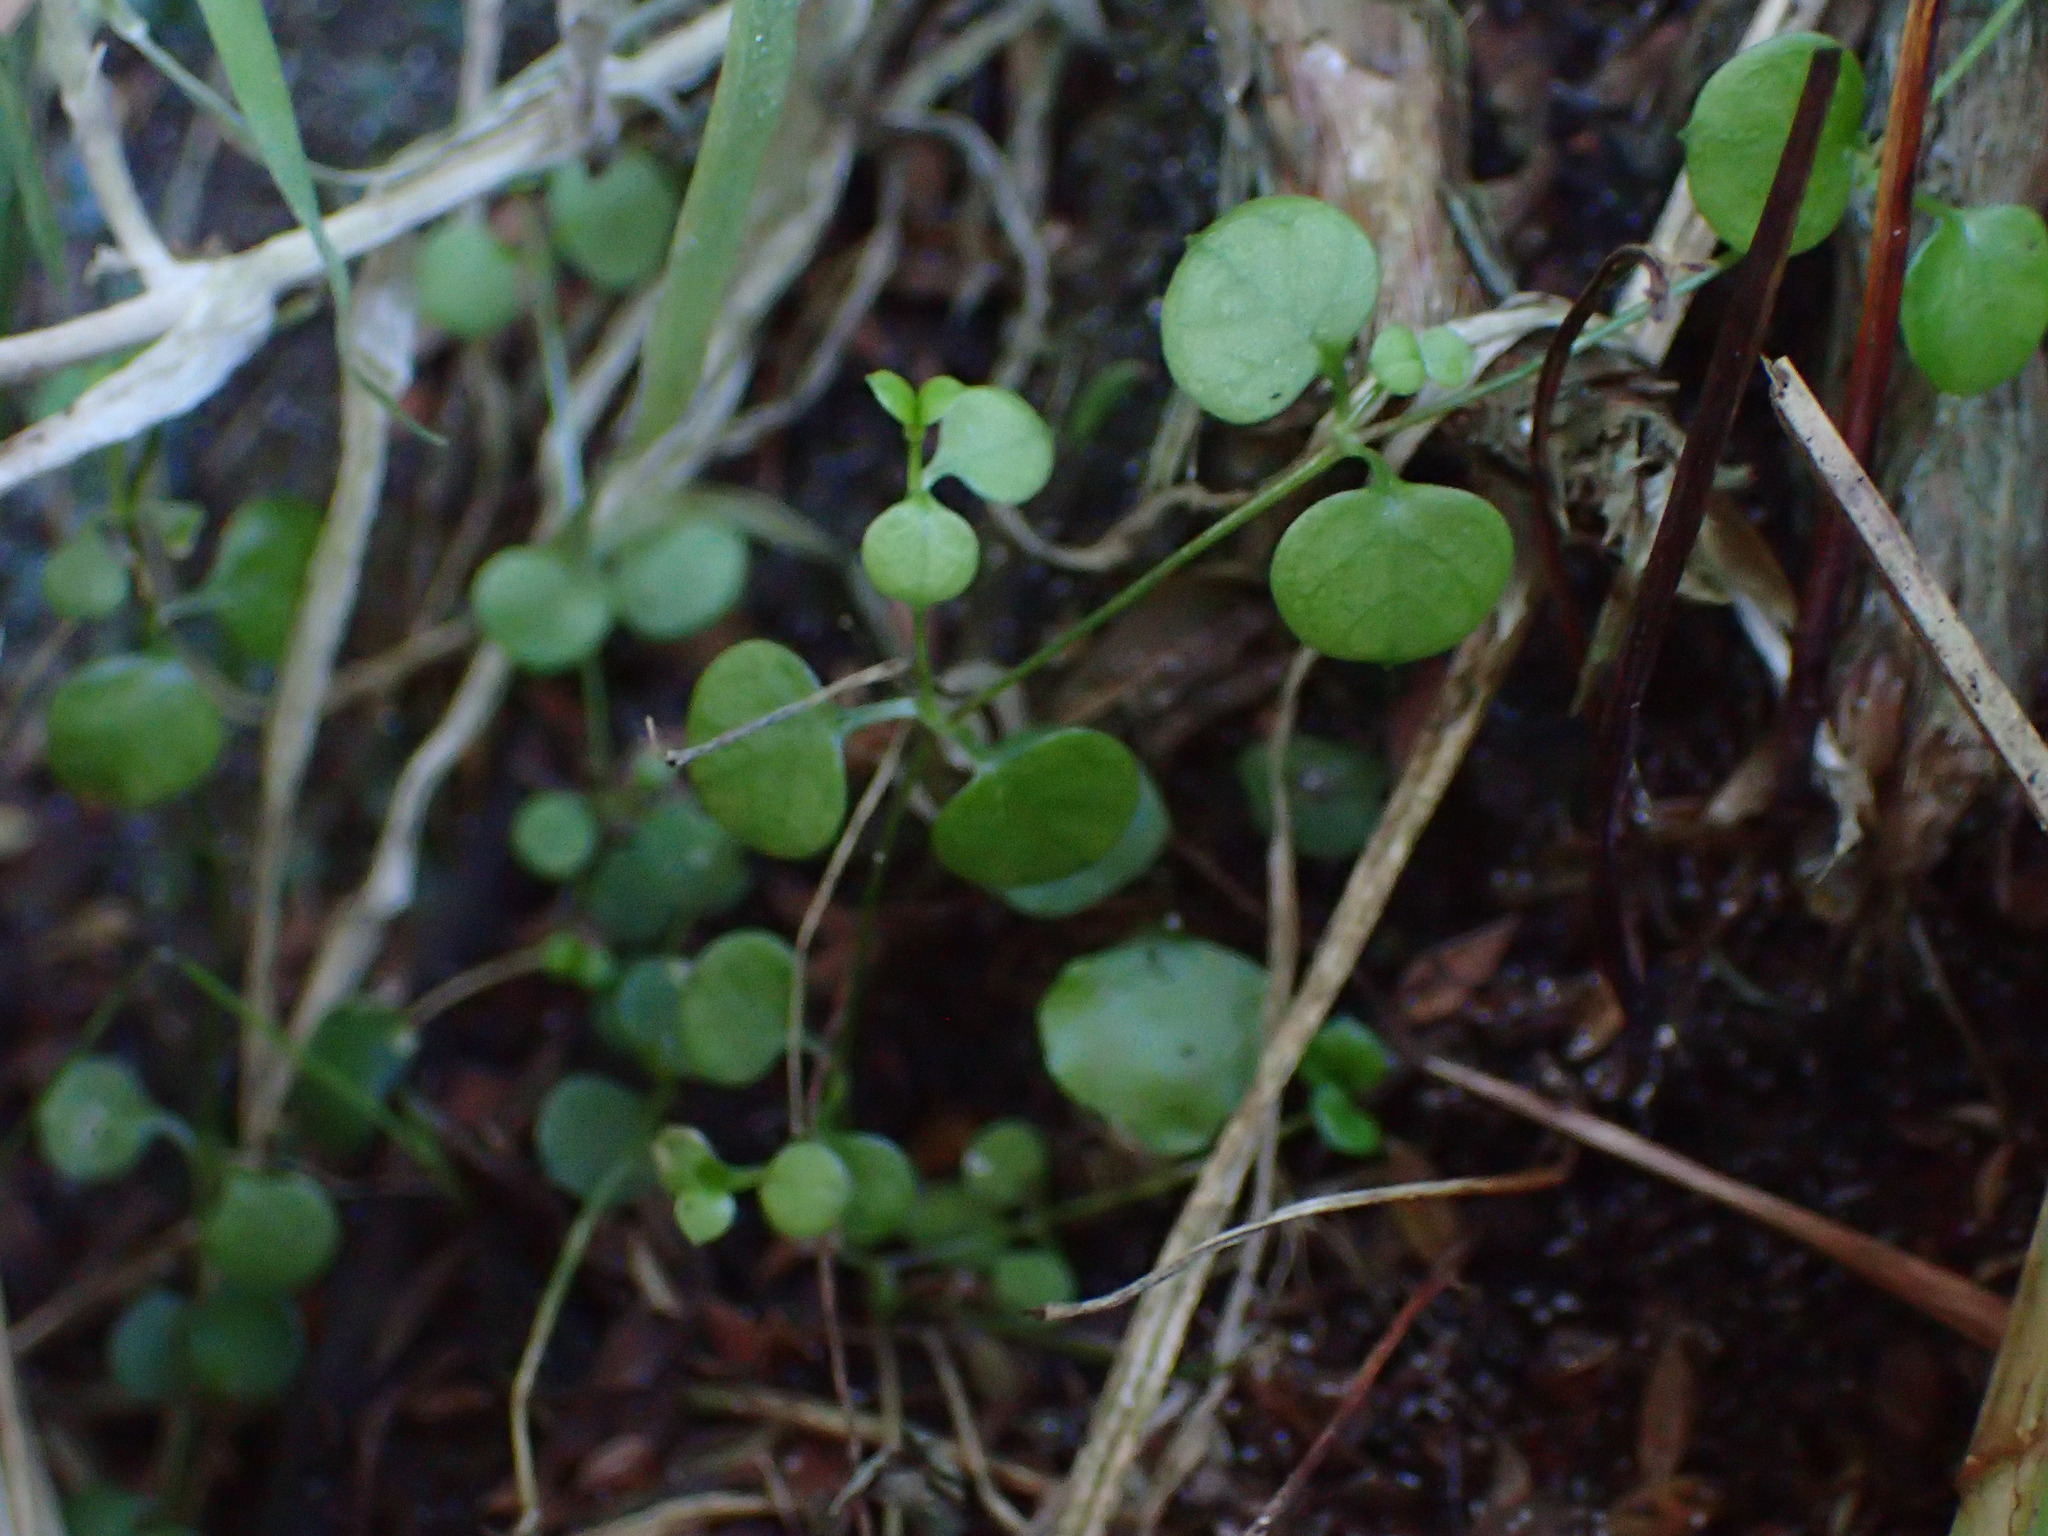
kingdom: Plantae
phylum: Tracheophyta
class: Magnoliopsida
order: Caryophyllales
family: Caryophyllaceae
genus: Stellaria
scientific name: Stellaria parviflora
